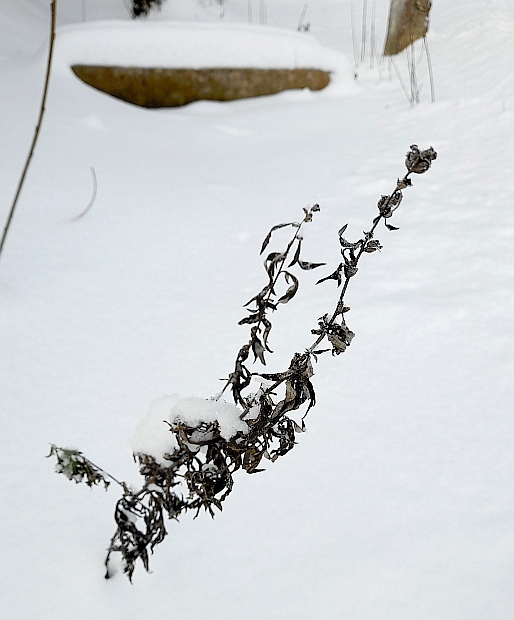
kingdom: Plantae
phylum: Tracheophyta
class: Magnoliopsida
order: Asterales
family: Asteraceae
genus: Artemisia
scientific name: Artemisia vulgaris
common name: Mugwort
